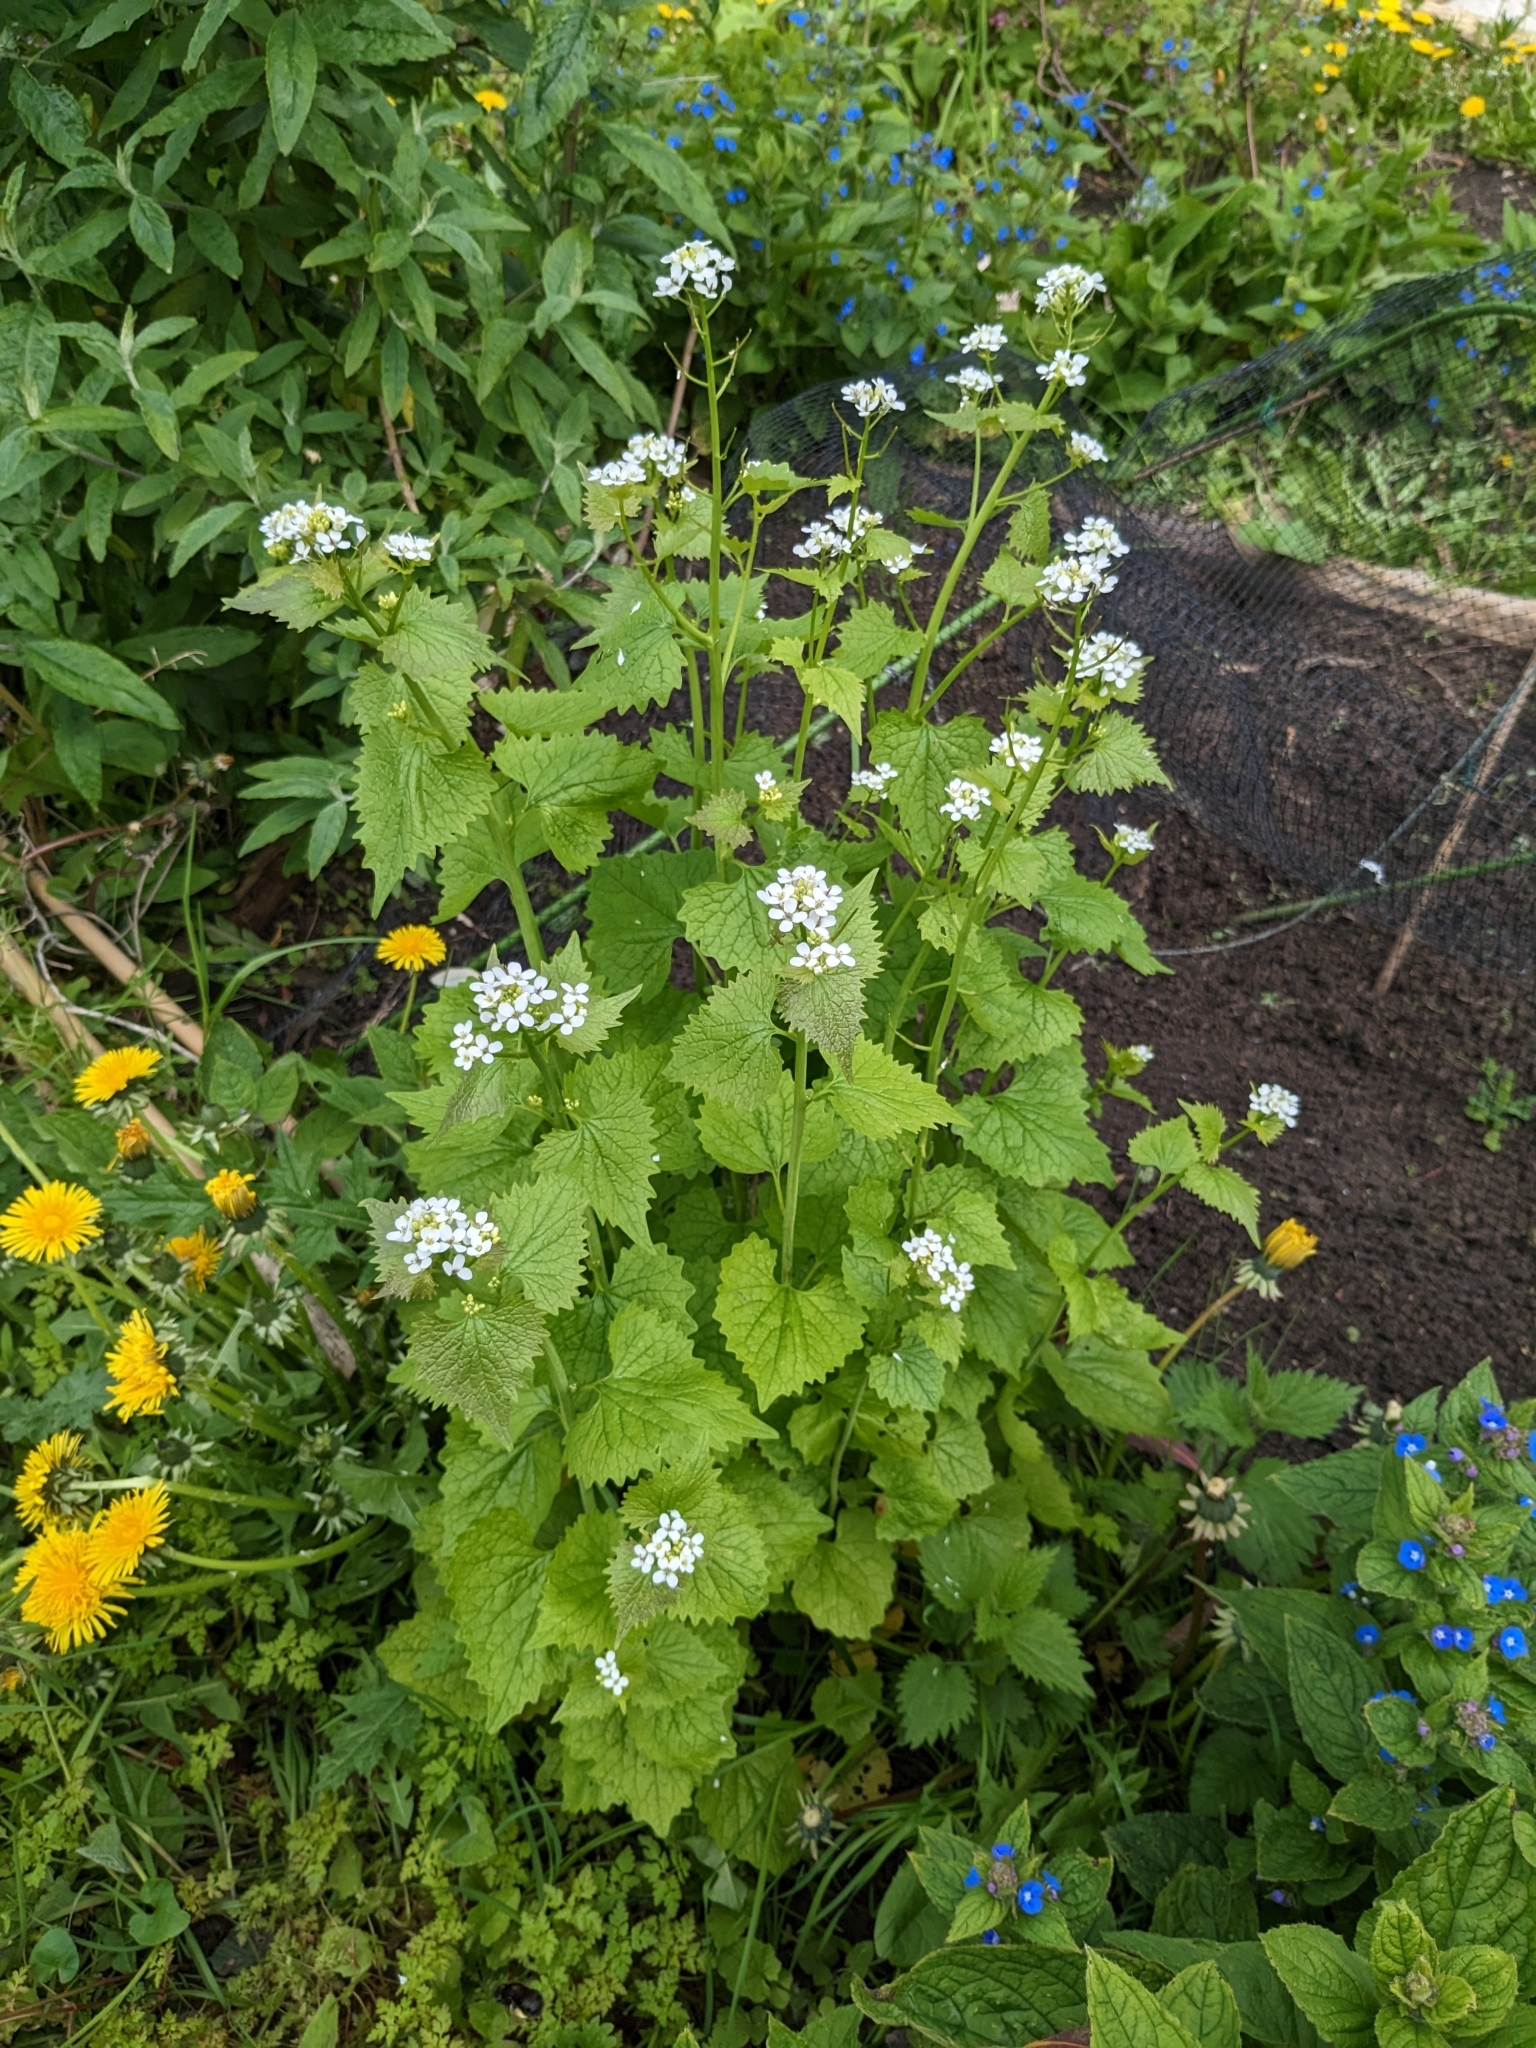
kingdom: Plantae
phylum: Tracheophyta
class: Magnoliopsida
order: Brassicales
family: Brassicaceae
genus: Alliaria
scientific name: Alliaria petiolata
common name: Garlic mustard
